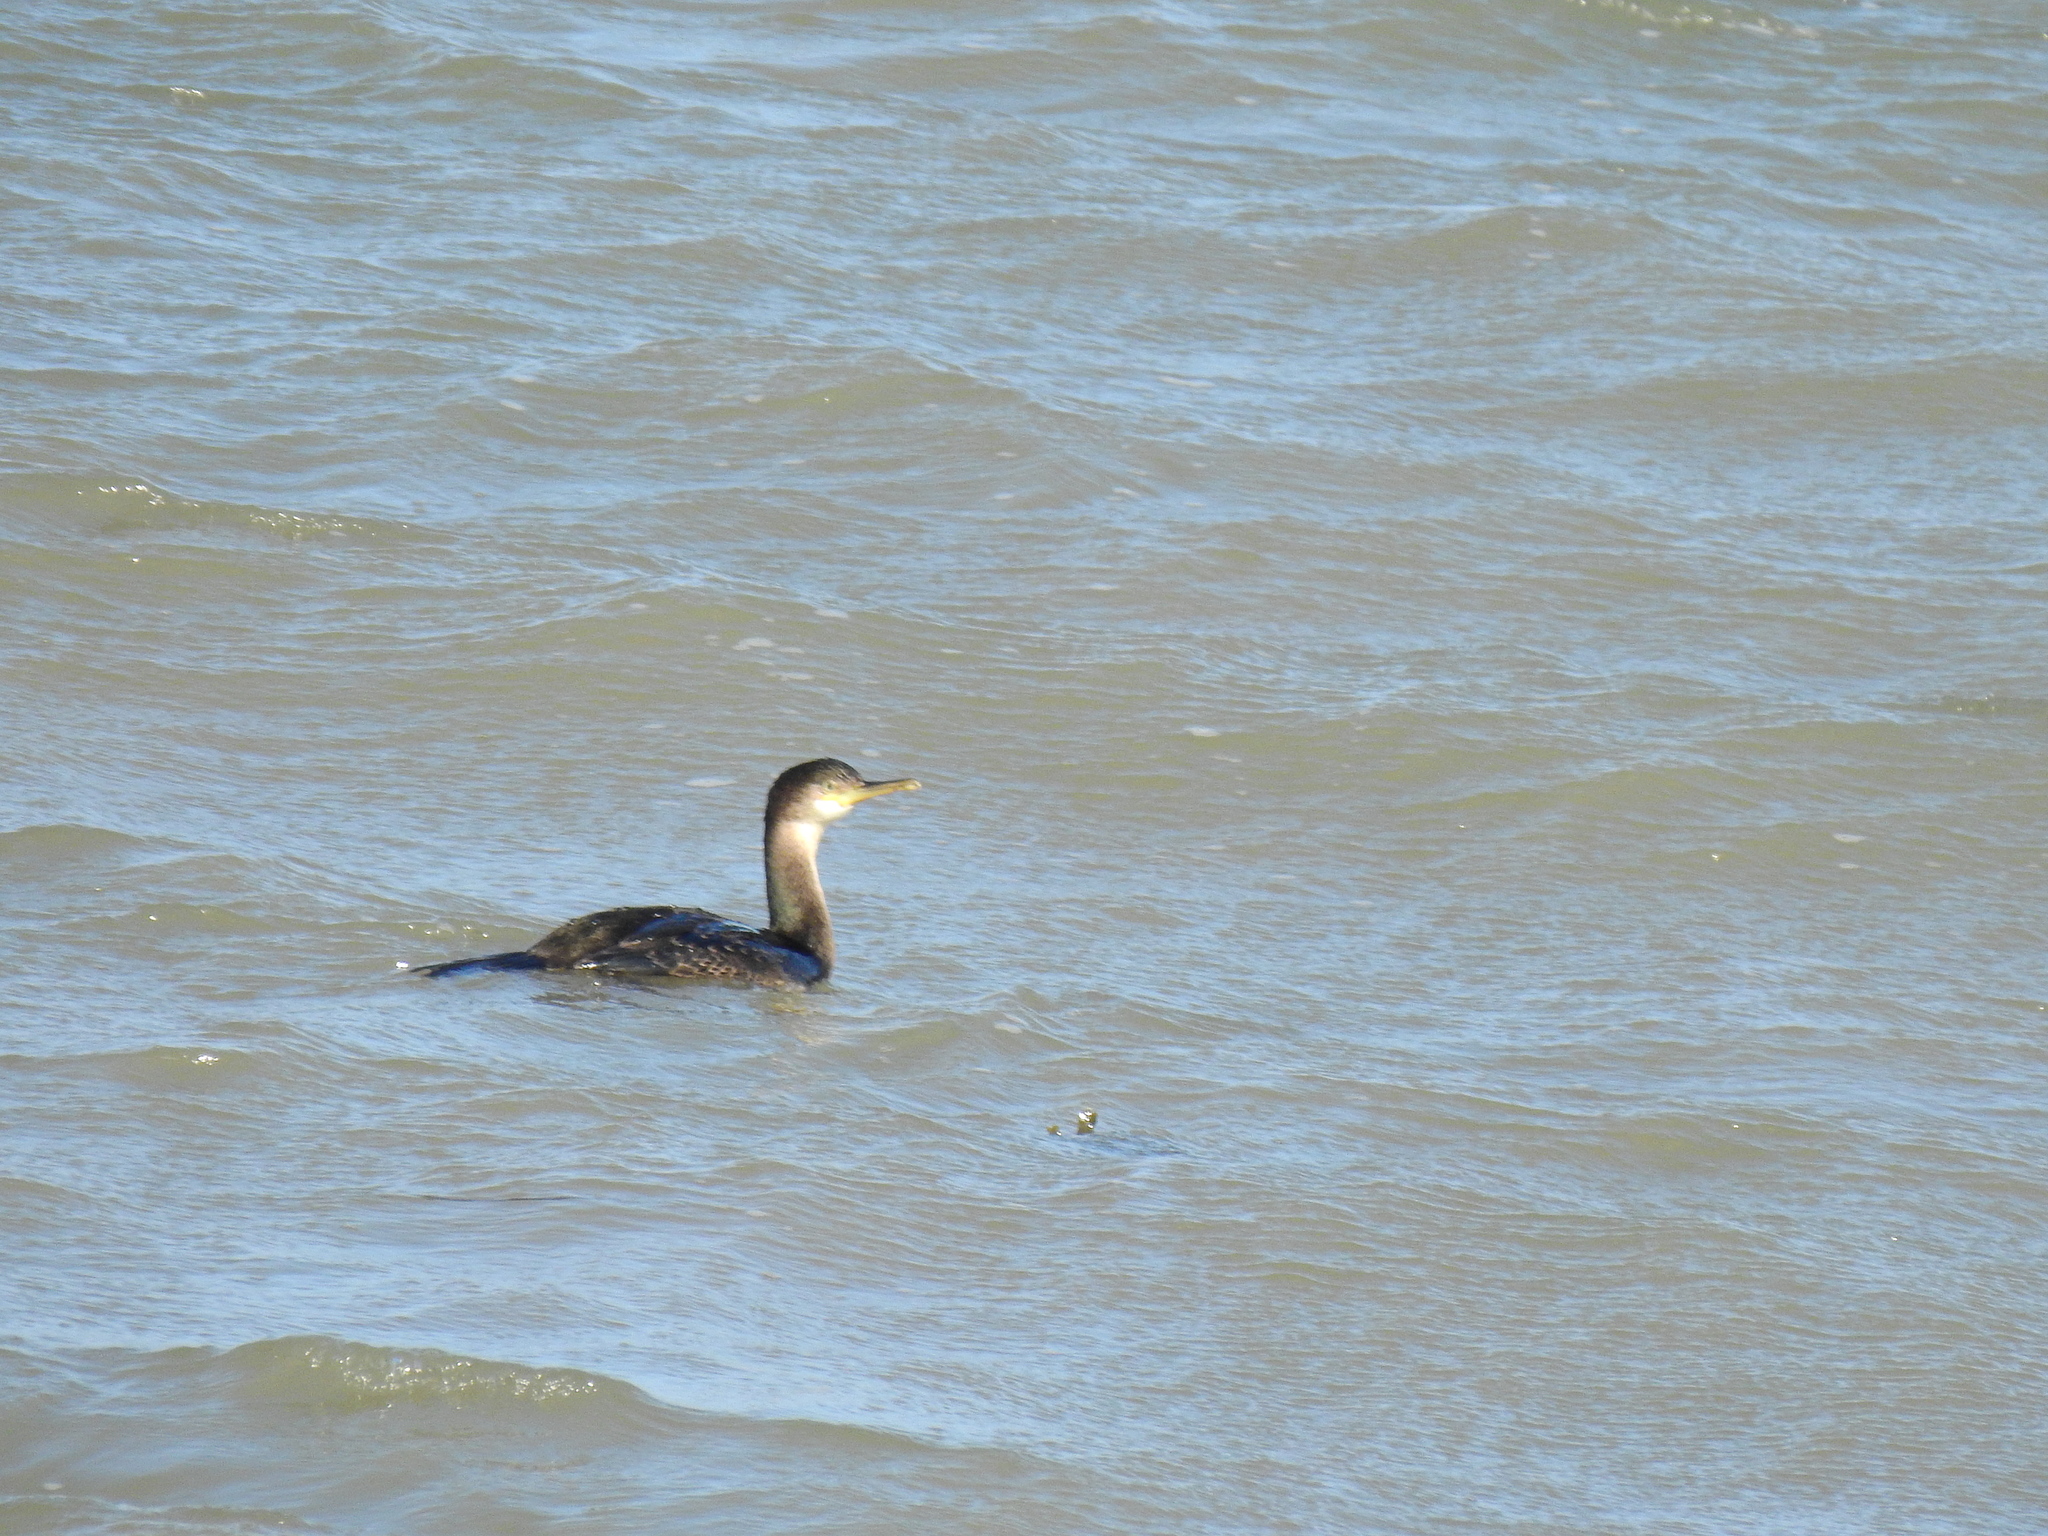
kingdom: Animalia
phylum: Chordata
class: Aves
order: Suliformes
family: Phalacrocoracidae
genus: Phalacrocorax
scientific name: Phalacrocorax aristotelis
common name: European shag
